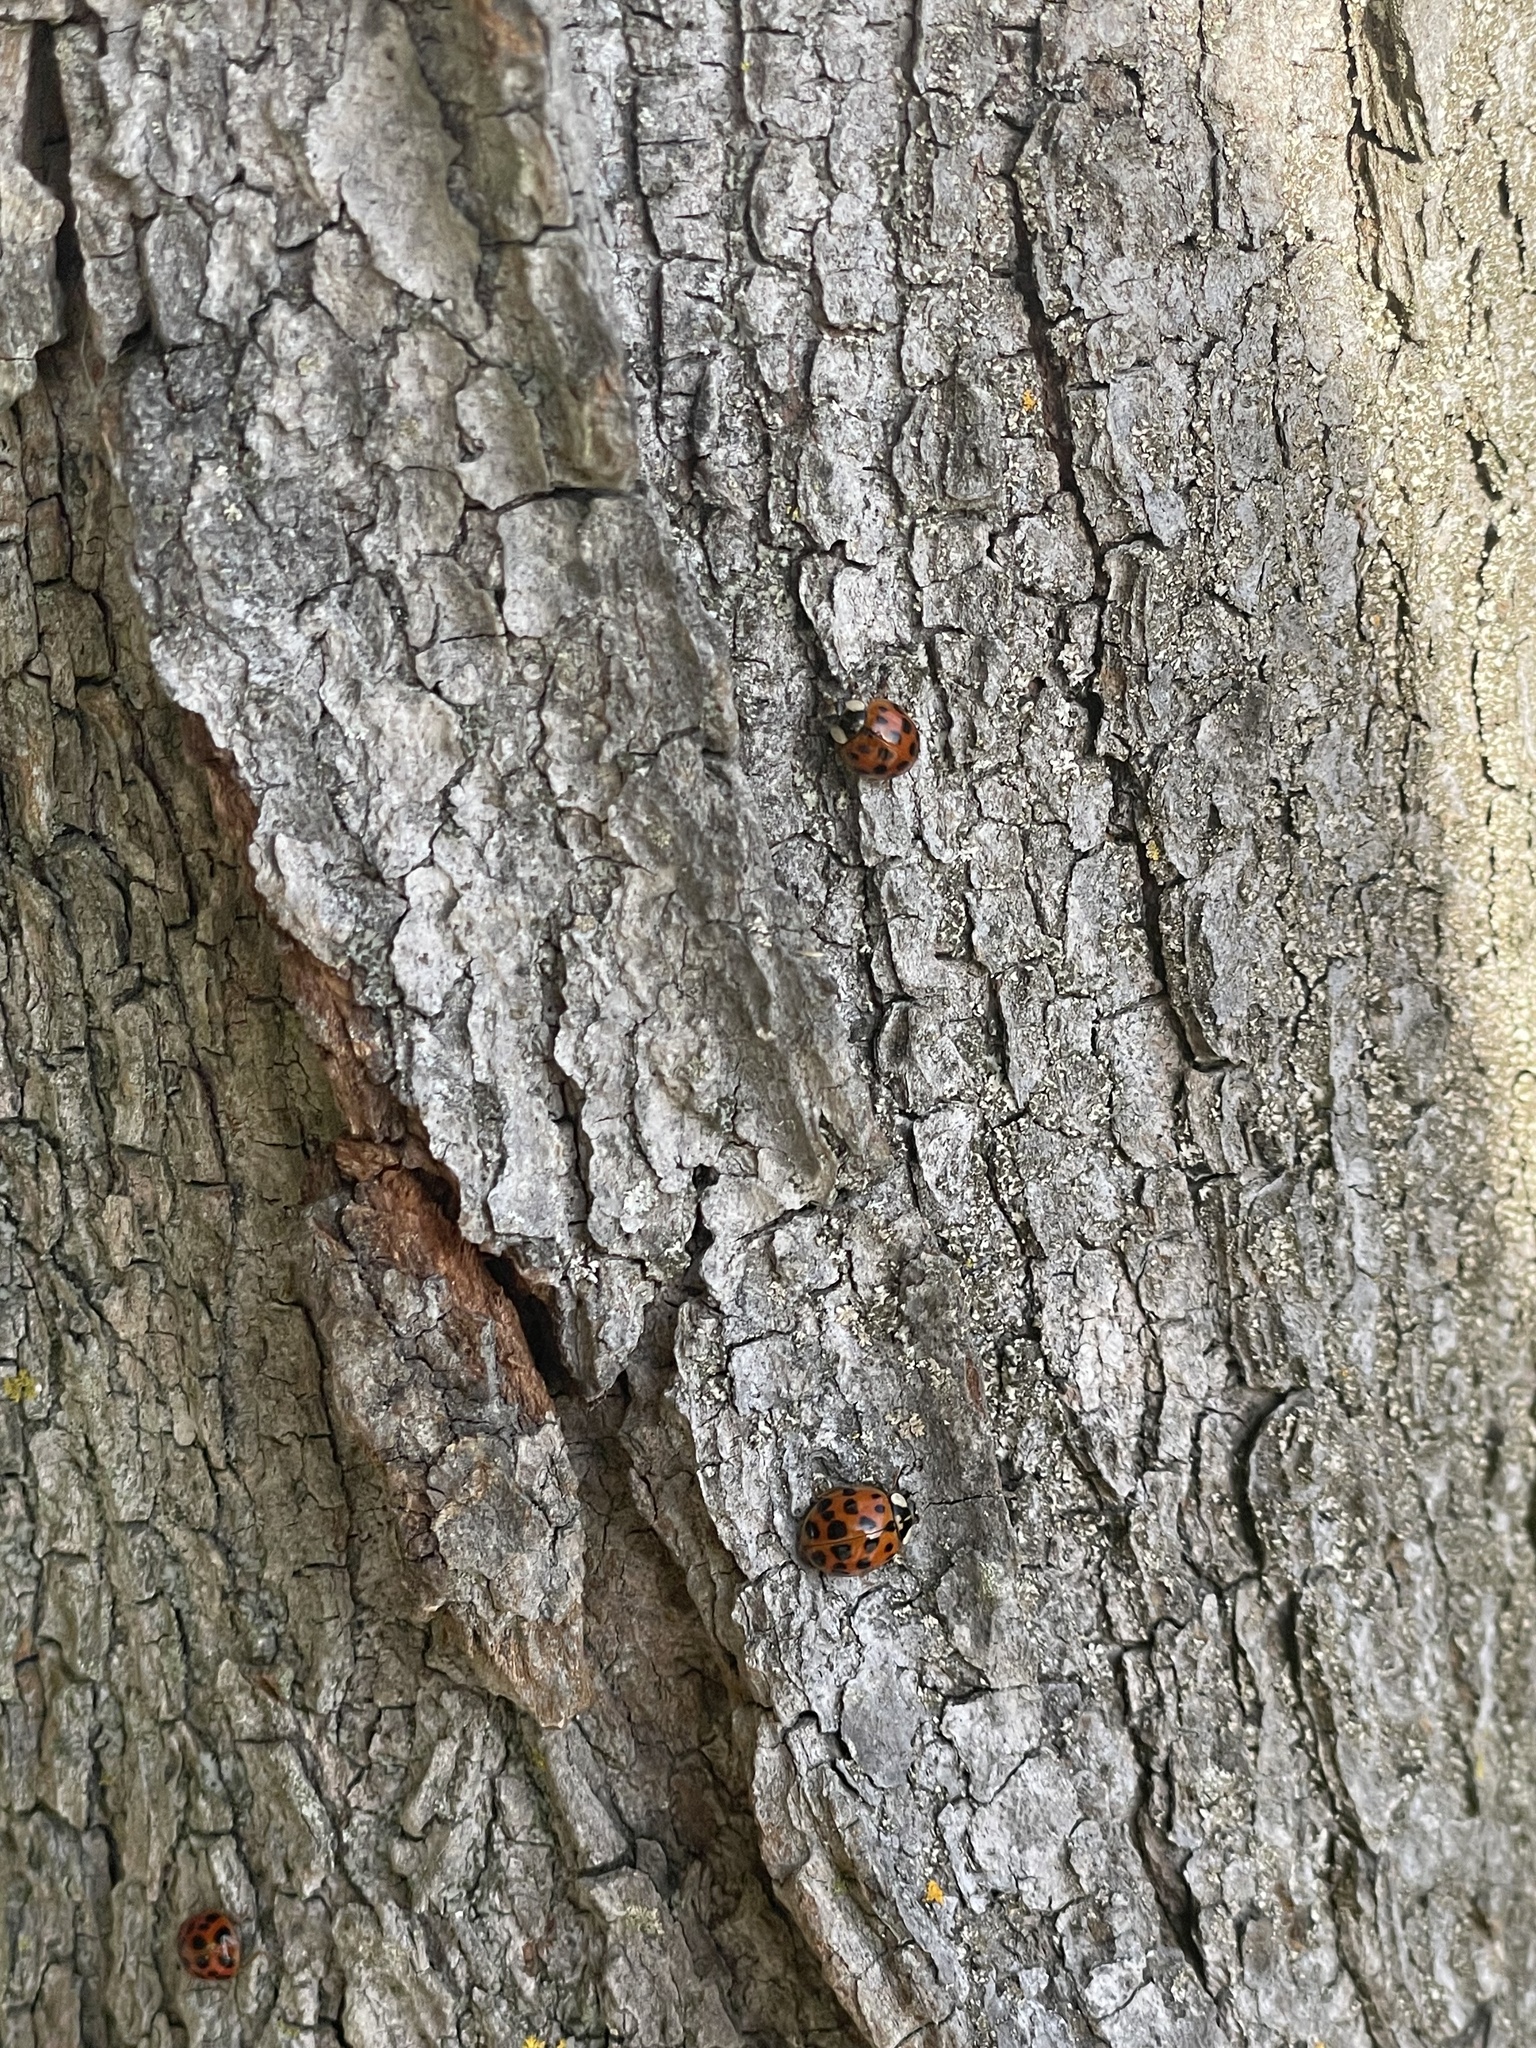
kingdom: Animalia
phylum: Arthropoda
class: Insecta
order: Coleoptera
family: Coccinellidae
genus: Harmonia
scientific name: Harmonia axyridis
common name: Harlequin ladybird
